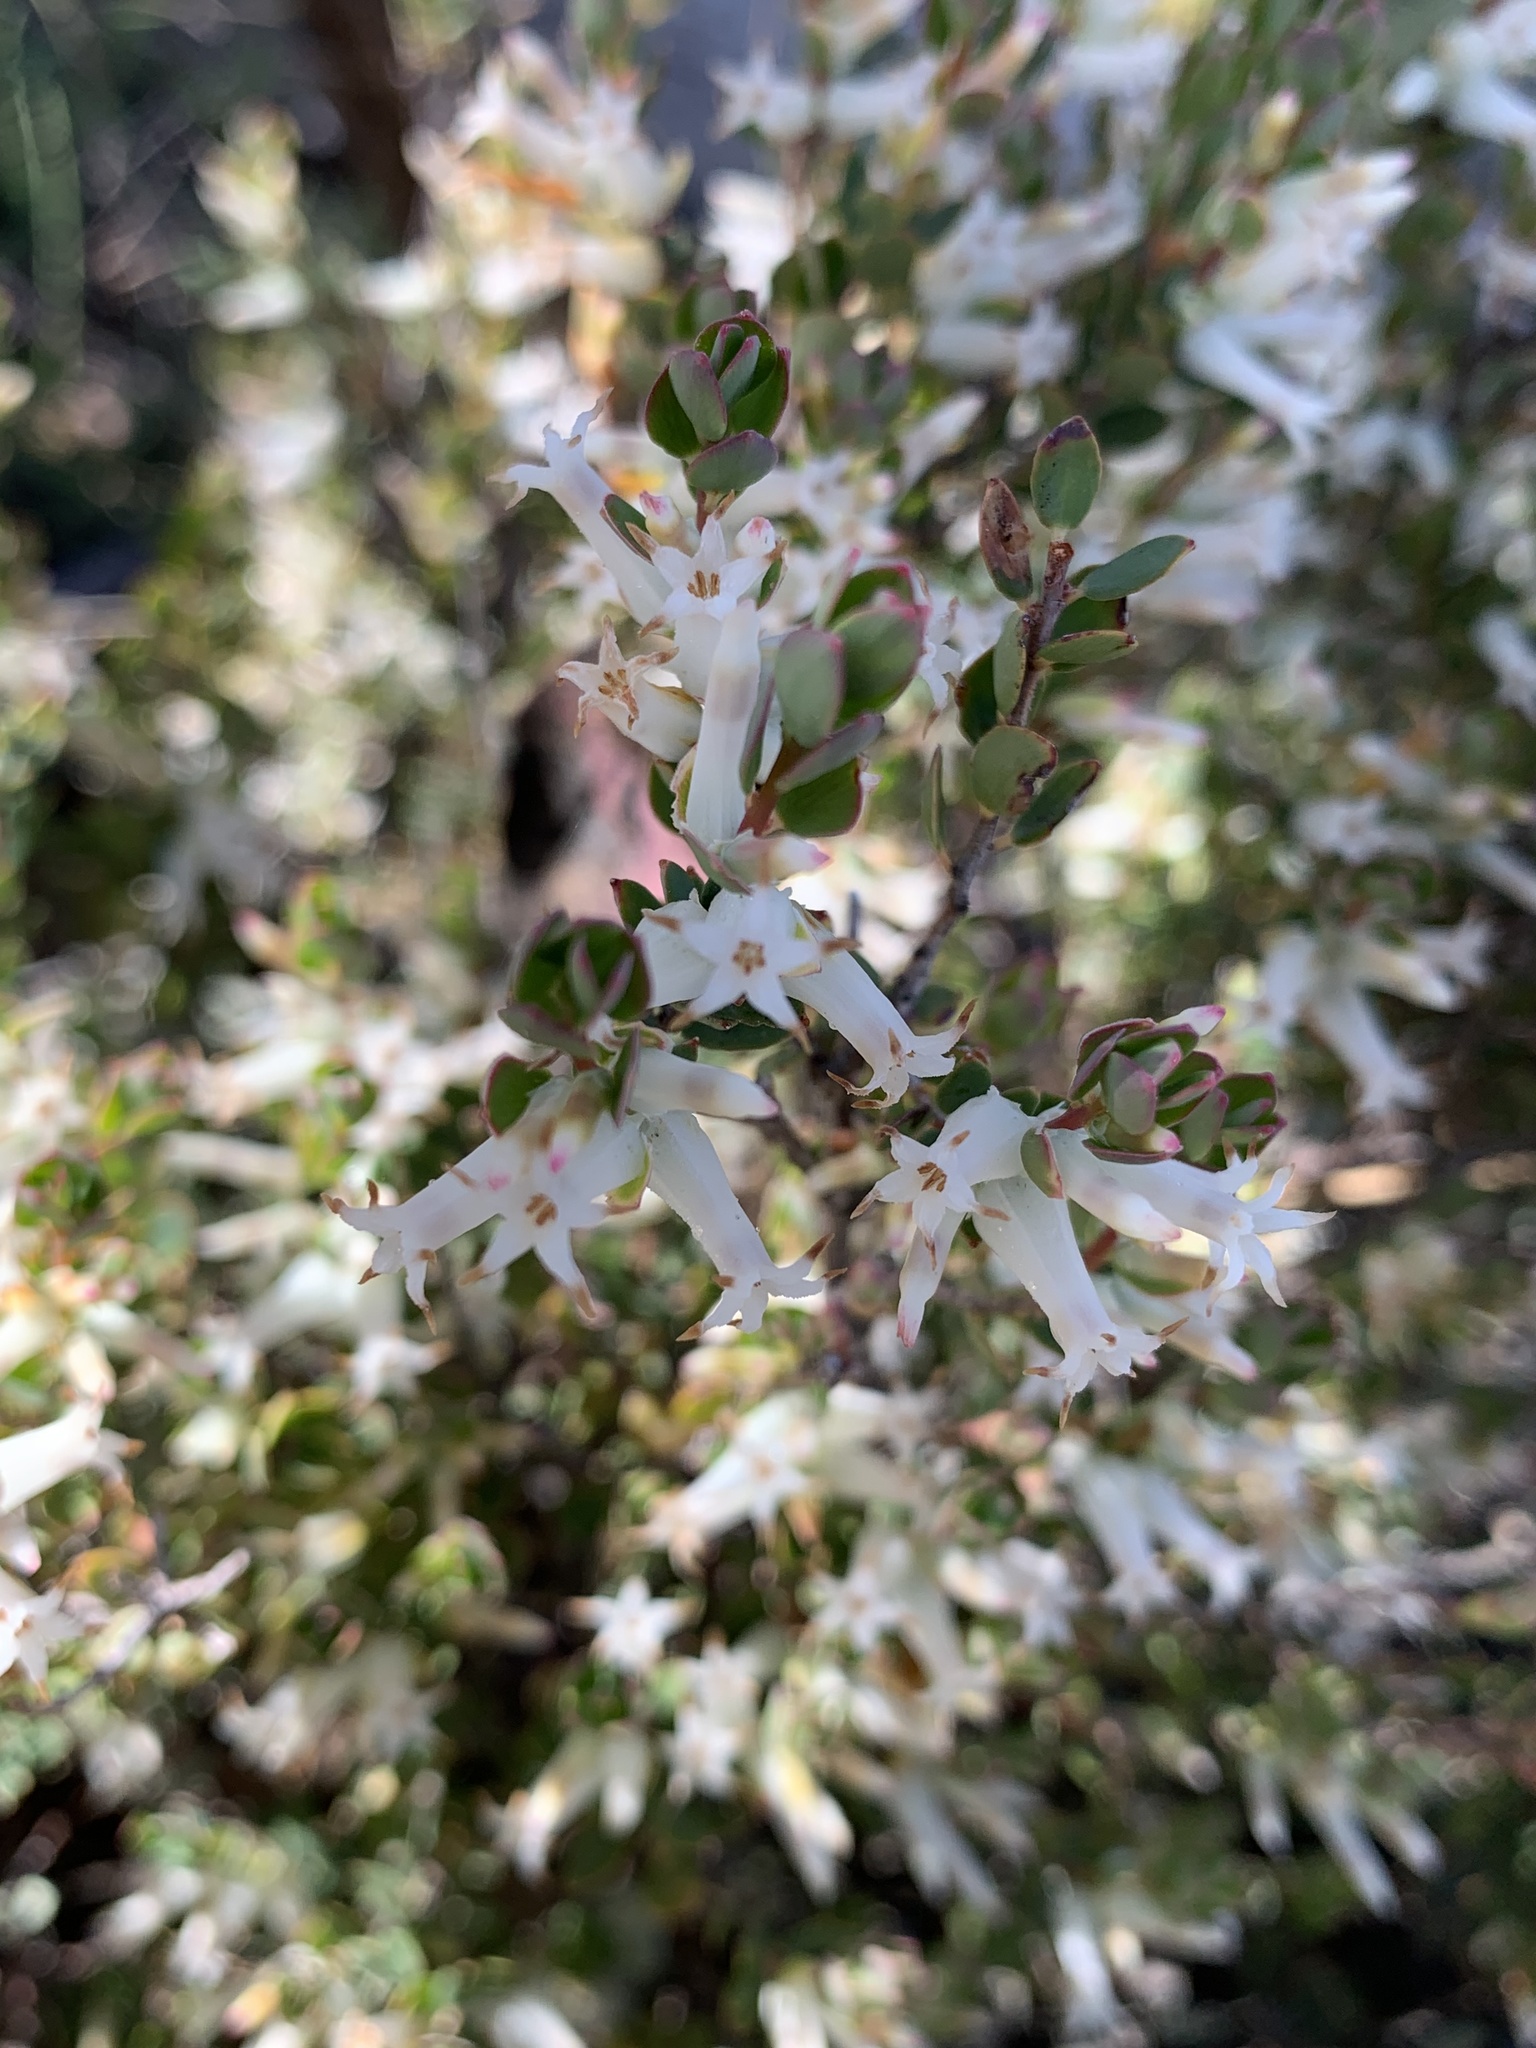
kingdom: Plantae
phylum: Tracheophyta
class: Magnoliopsida
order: Ericales
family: Ericaceae
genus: Brachyloma
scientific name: Brachyloma daphnoides
